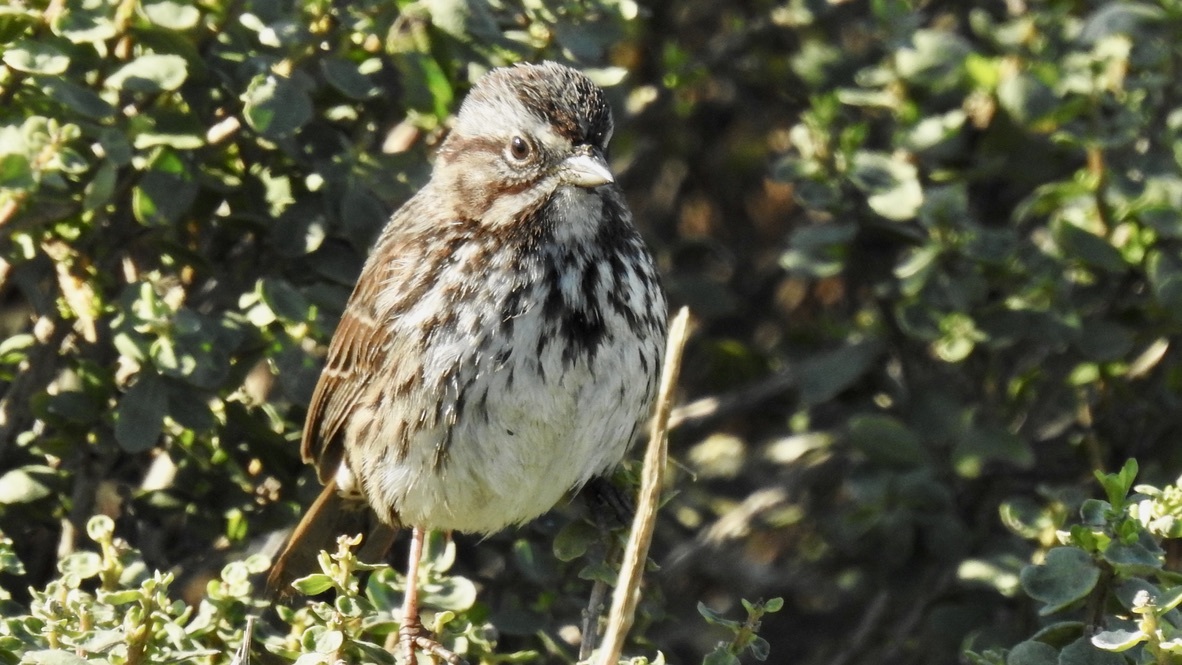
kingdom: Animalia
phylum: Chordata
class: Aves
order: Passeriformes
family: Passerellidae
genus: Melospiza
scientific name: Melospiza melodia
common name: Song sparrow
